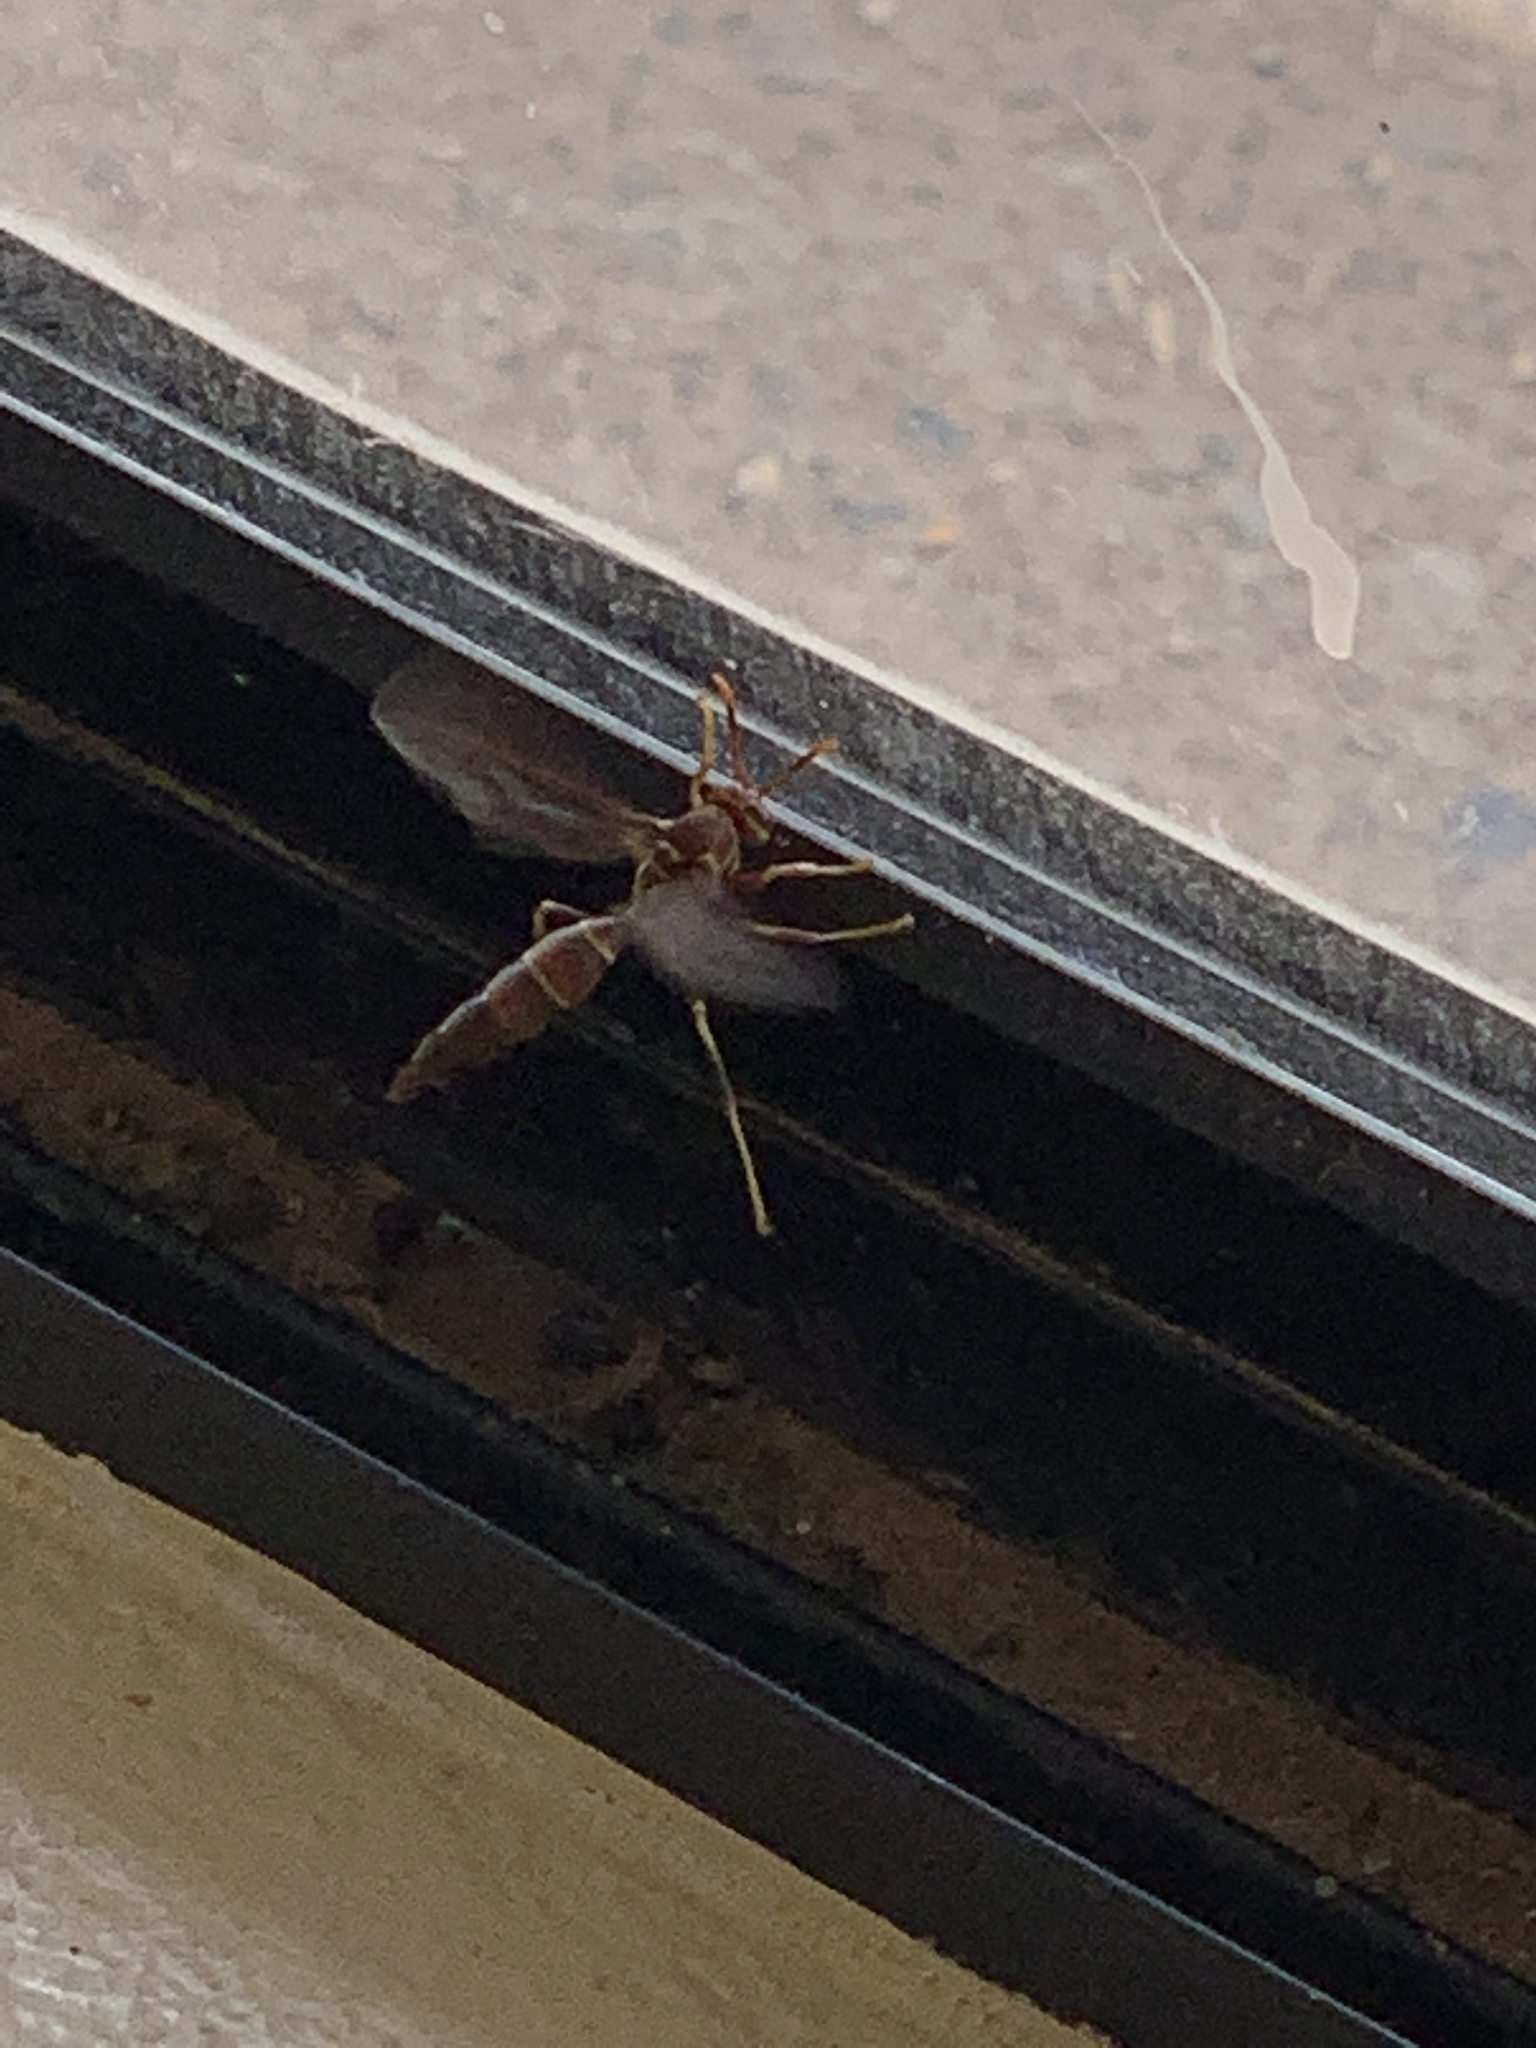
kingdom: Animalia
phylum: Arthropoda
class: Insecta
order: Hymenoptera
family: Eumenidae
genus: Polistes
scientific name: Polistes arizonensis
